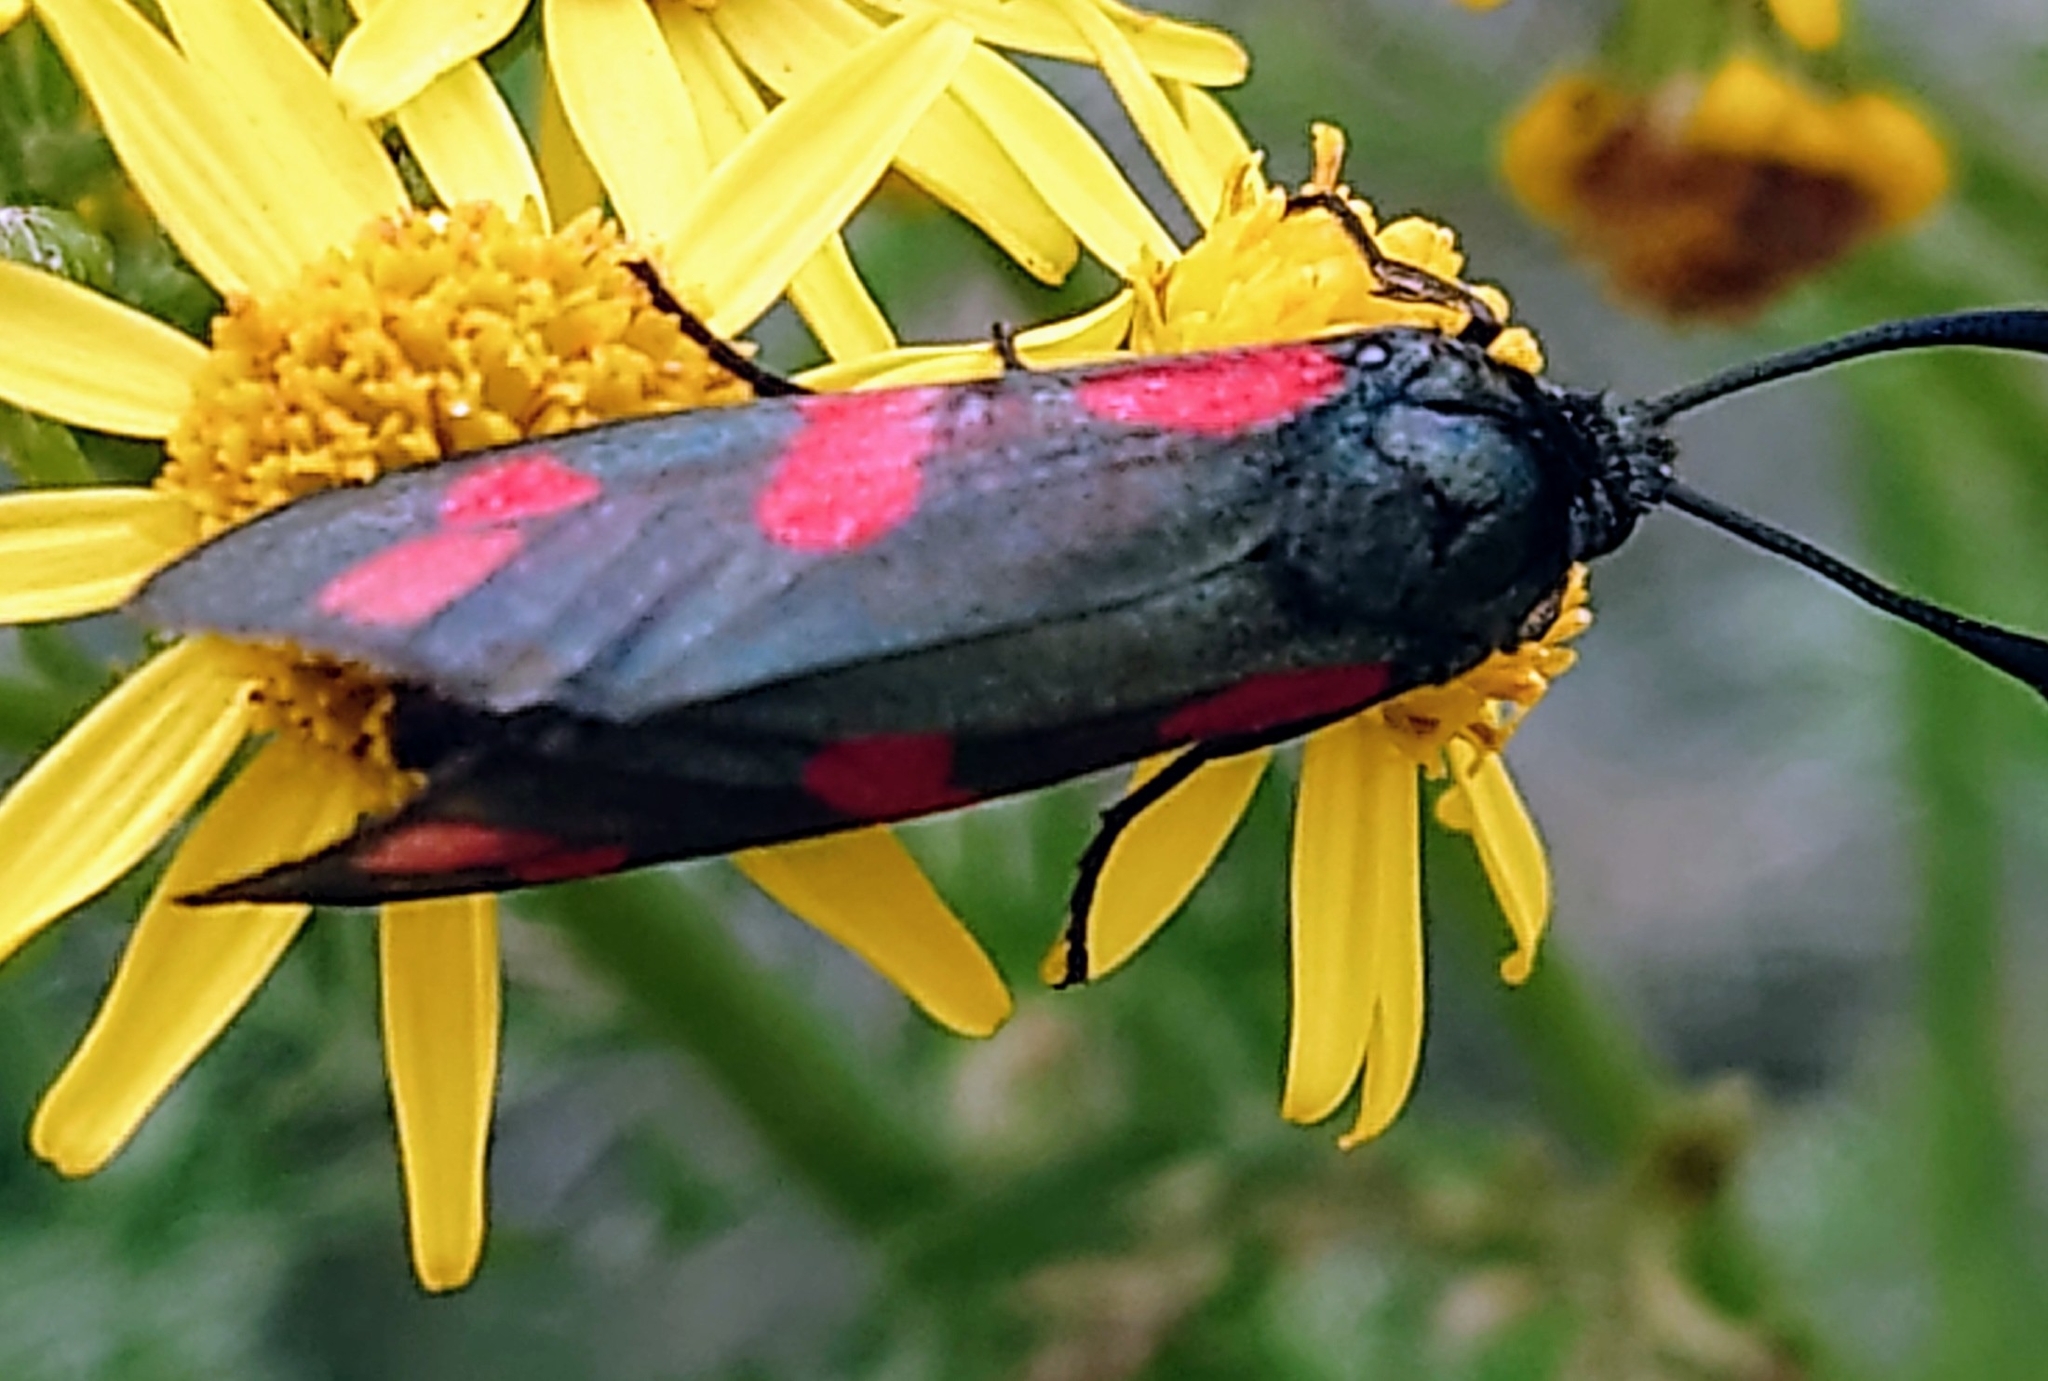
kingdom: Animalia
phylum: Arthropoda
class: Insecta
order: Lepidoptera
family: Zygaenidae
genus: Zygaena
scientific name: Zygaena filipendulae
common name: Six-spot burnet
